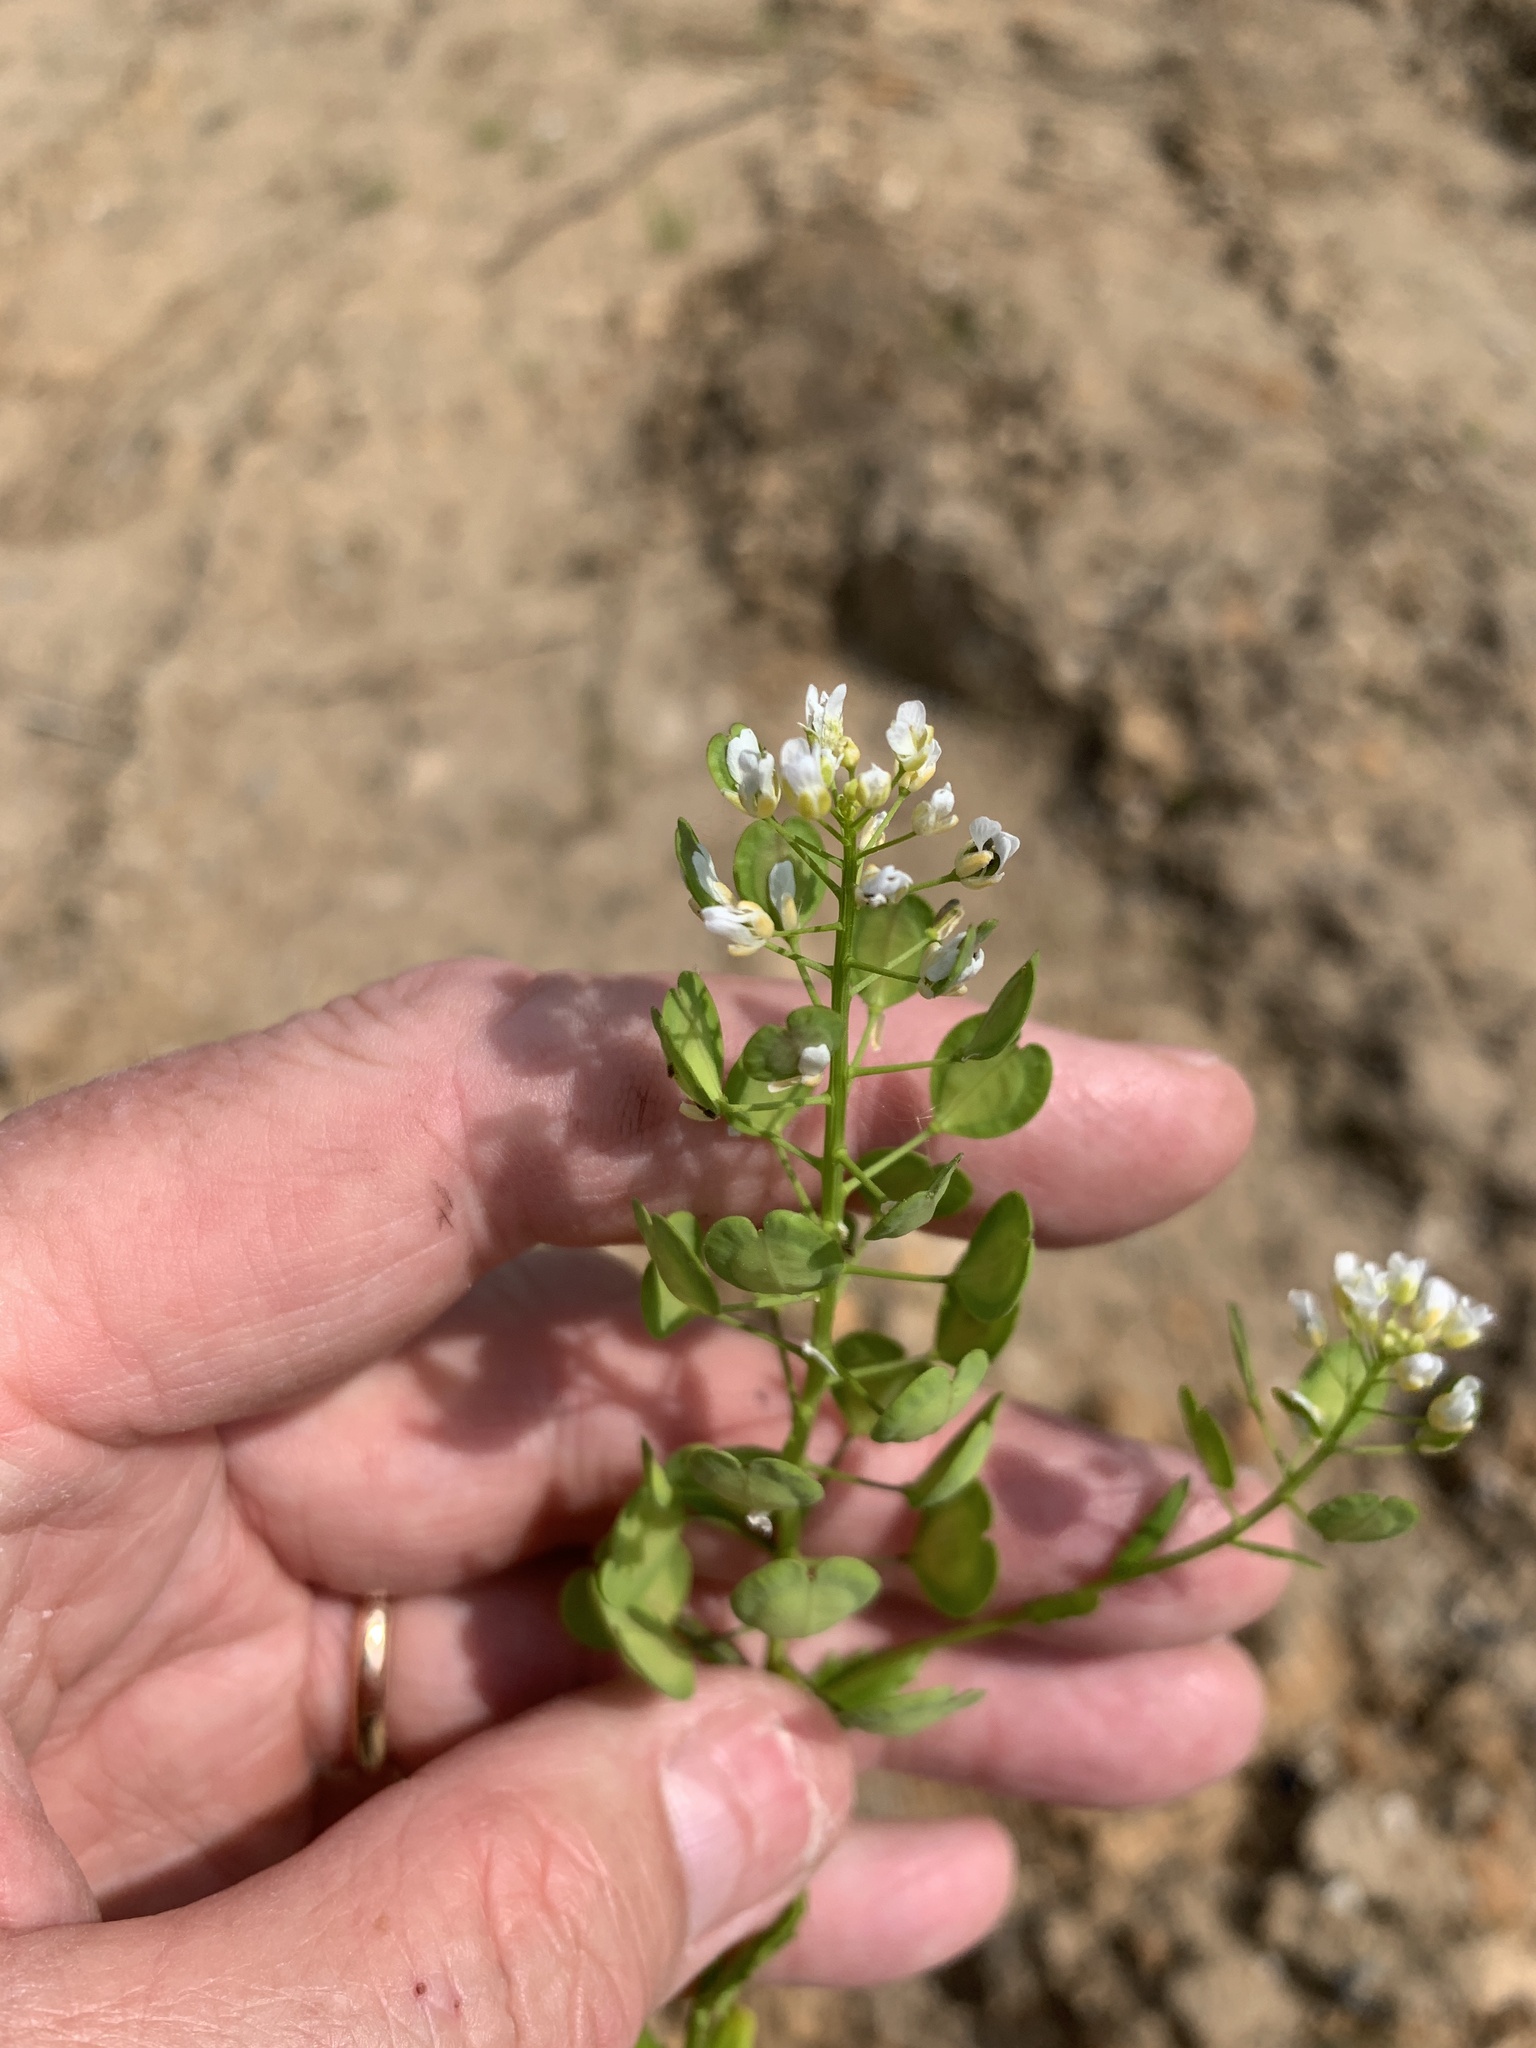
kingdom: Plantae
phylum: Tracheophyta
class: Magnoliopsida
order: Brassicales
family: Brassicaceae
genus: Thlaspi
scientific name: Thlaspi arvense
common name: Field pennycress
